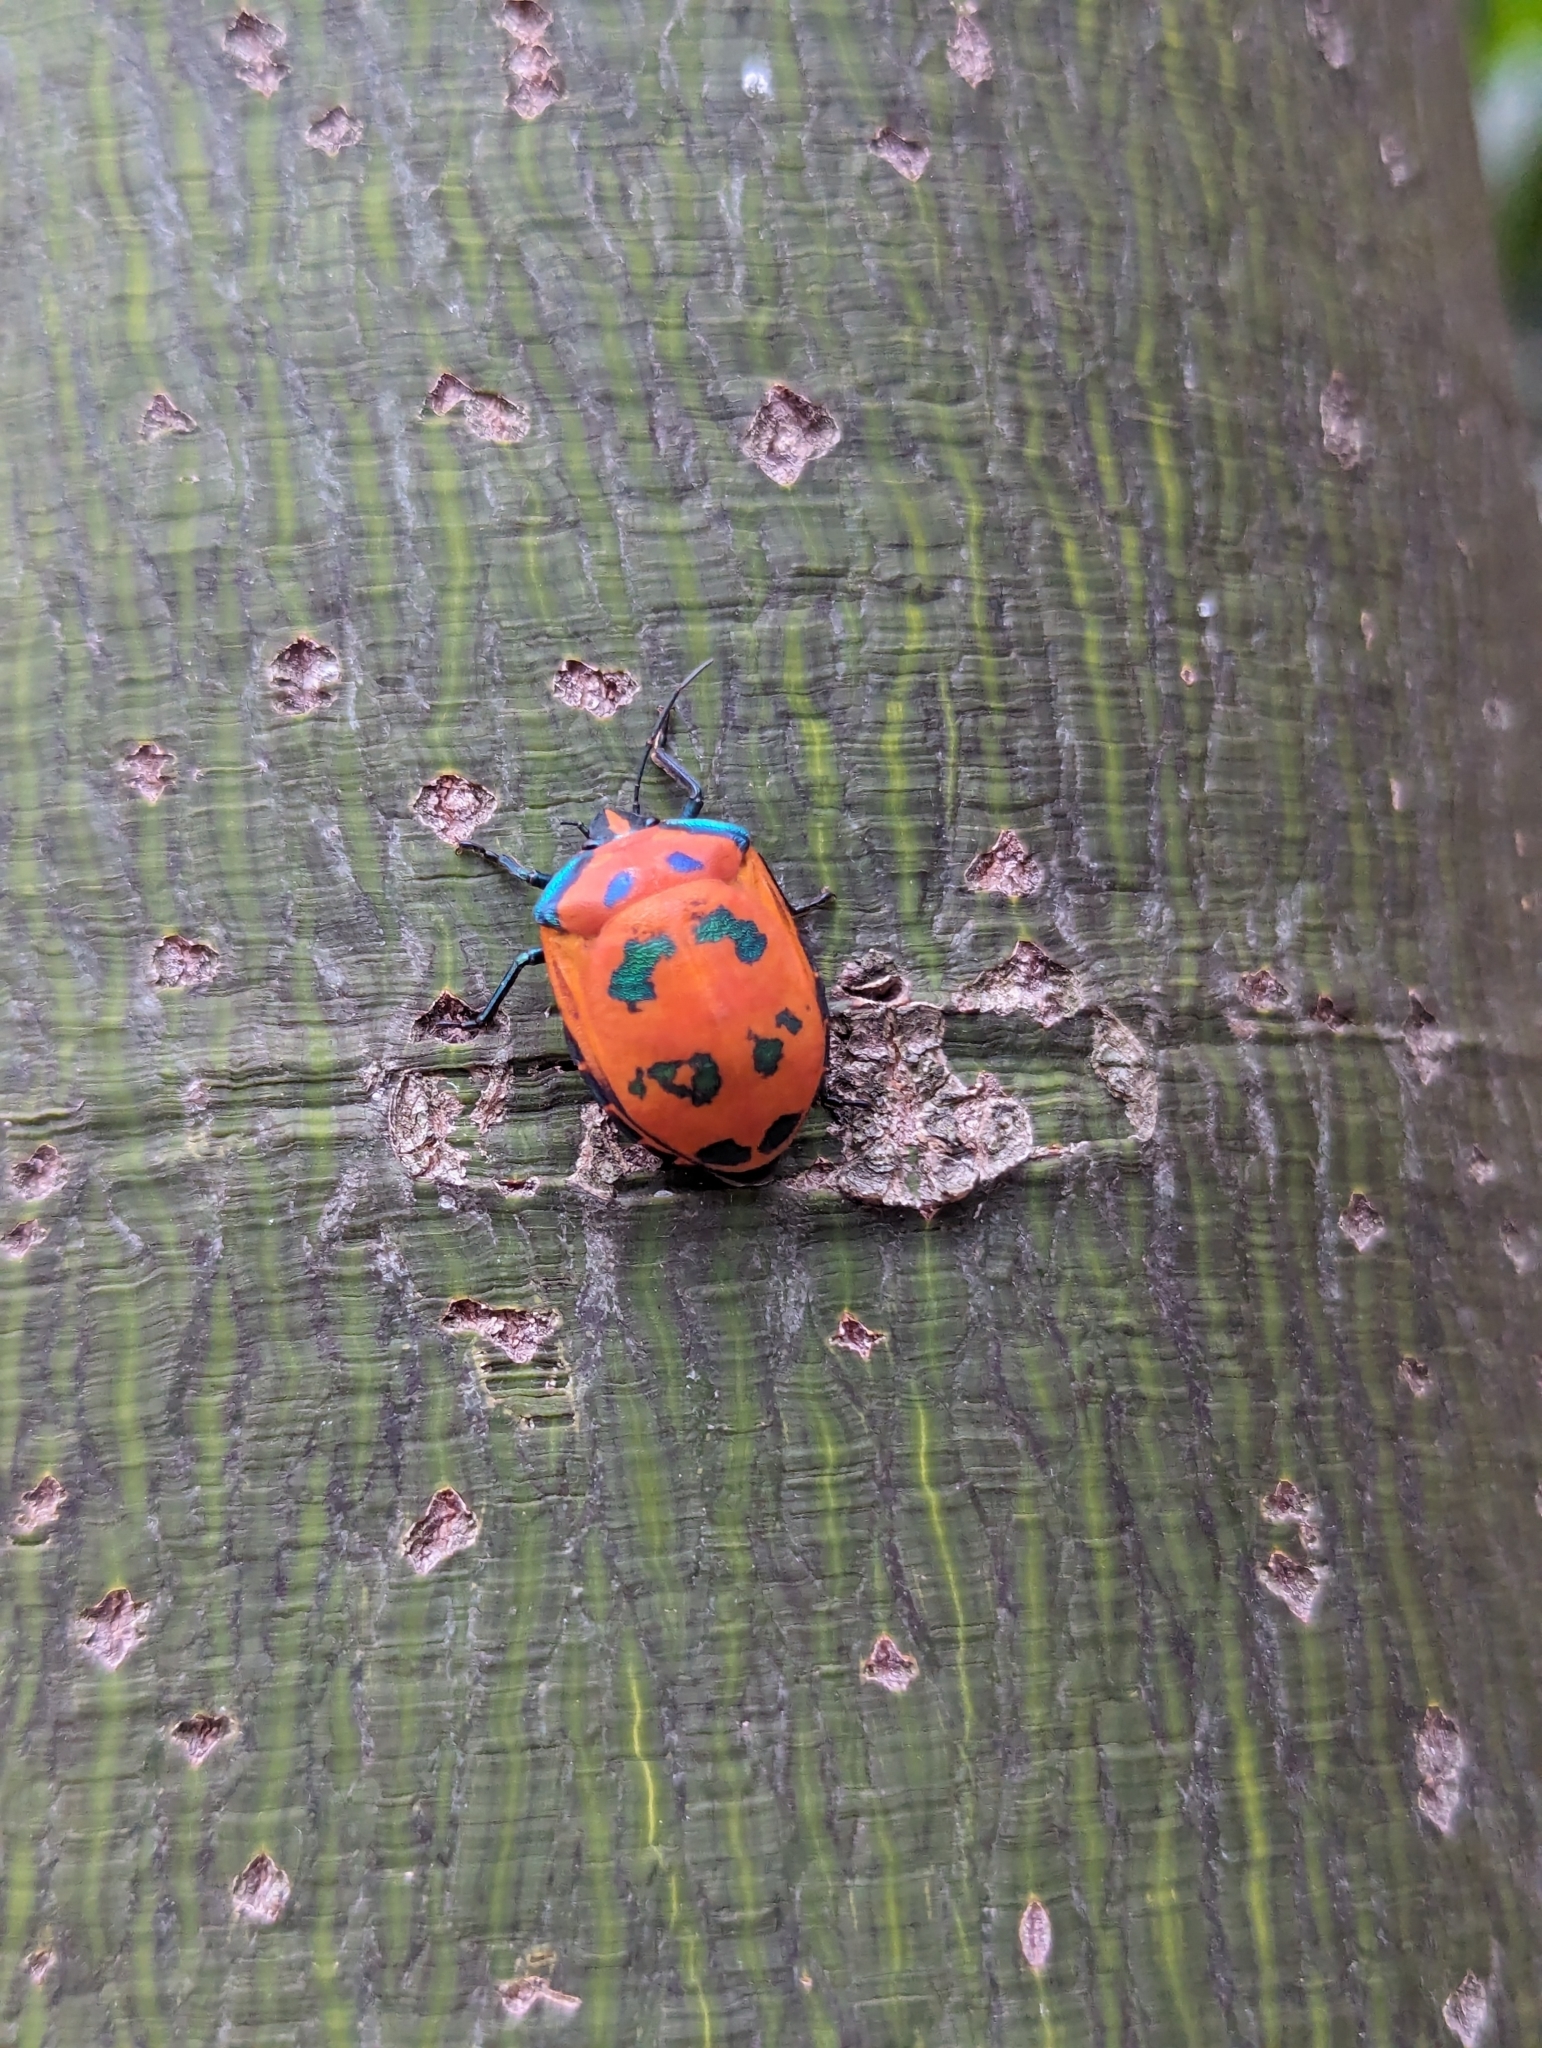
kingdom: Animalia
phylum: Arthropoda
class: Insecta
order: Hemiptera
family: Scutelleridae
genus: Tectocoris
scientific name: Tectocoris diophthalmus
